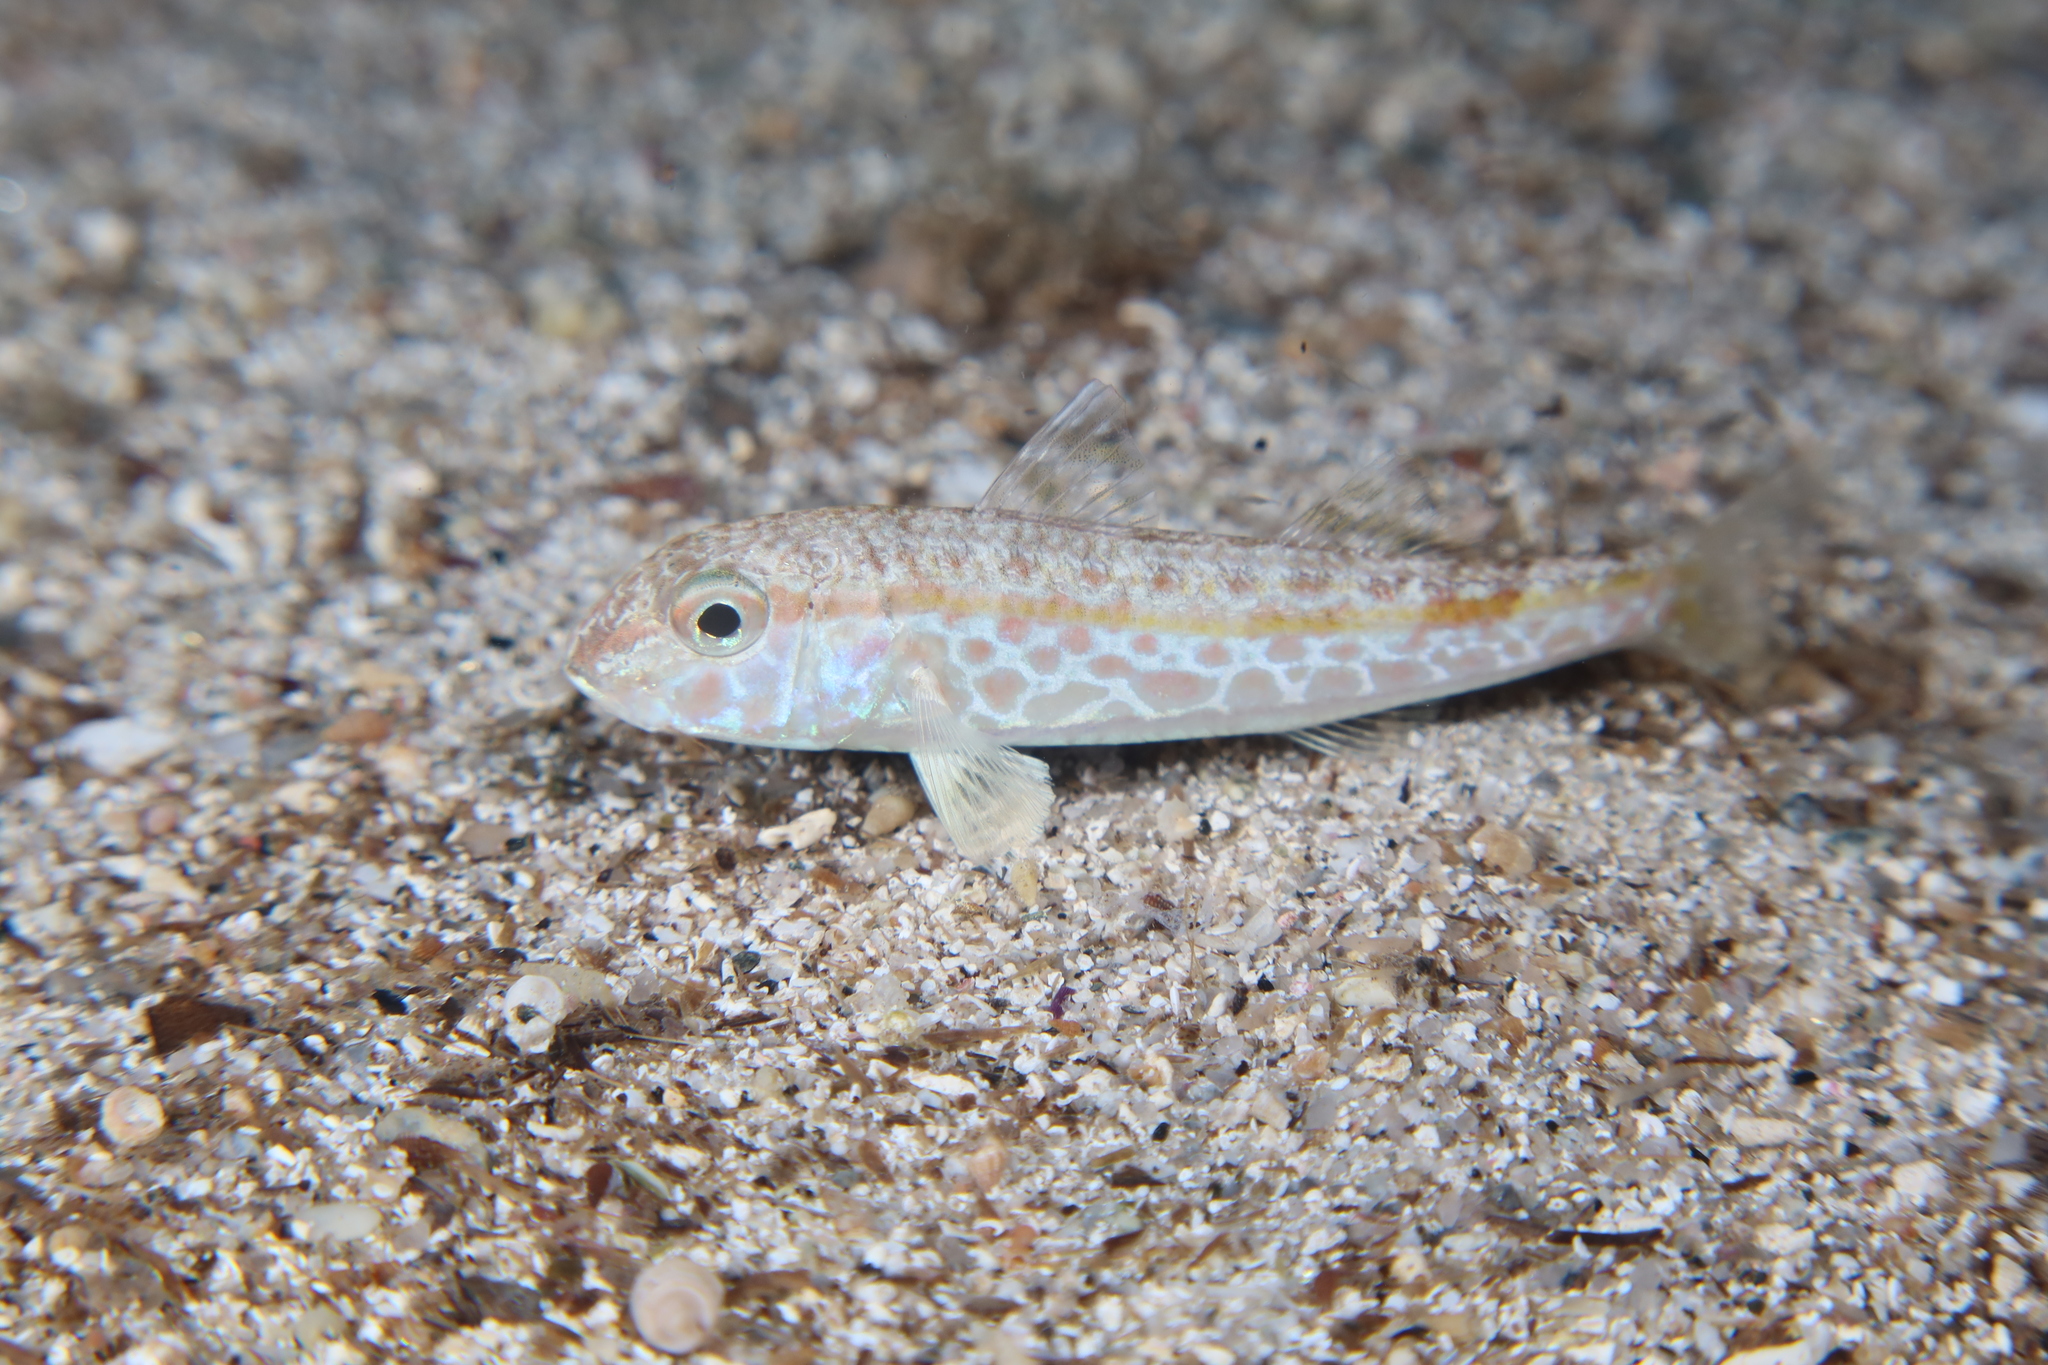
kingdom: Animalia
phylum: Chordata
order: Perciformes
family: Mullidae
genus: Mullus
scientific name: Mullus barbatus
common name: Blunt-snouted mullet
